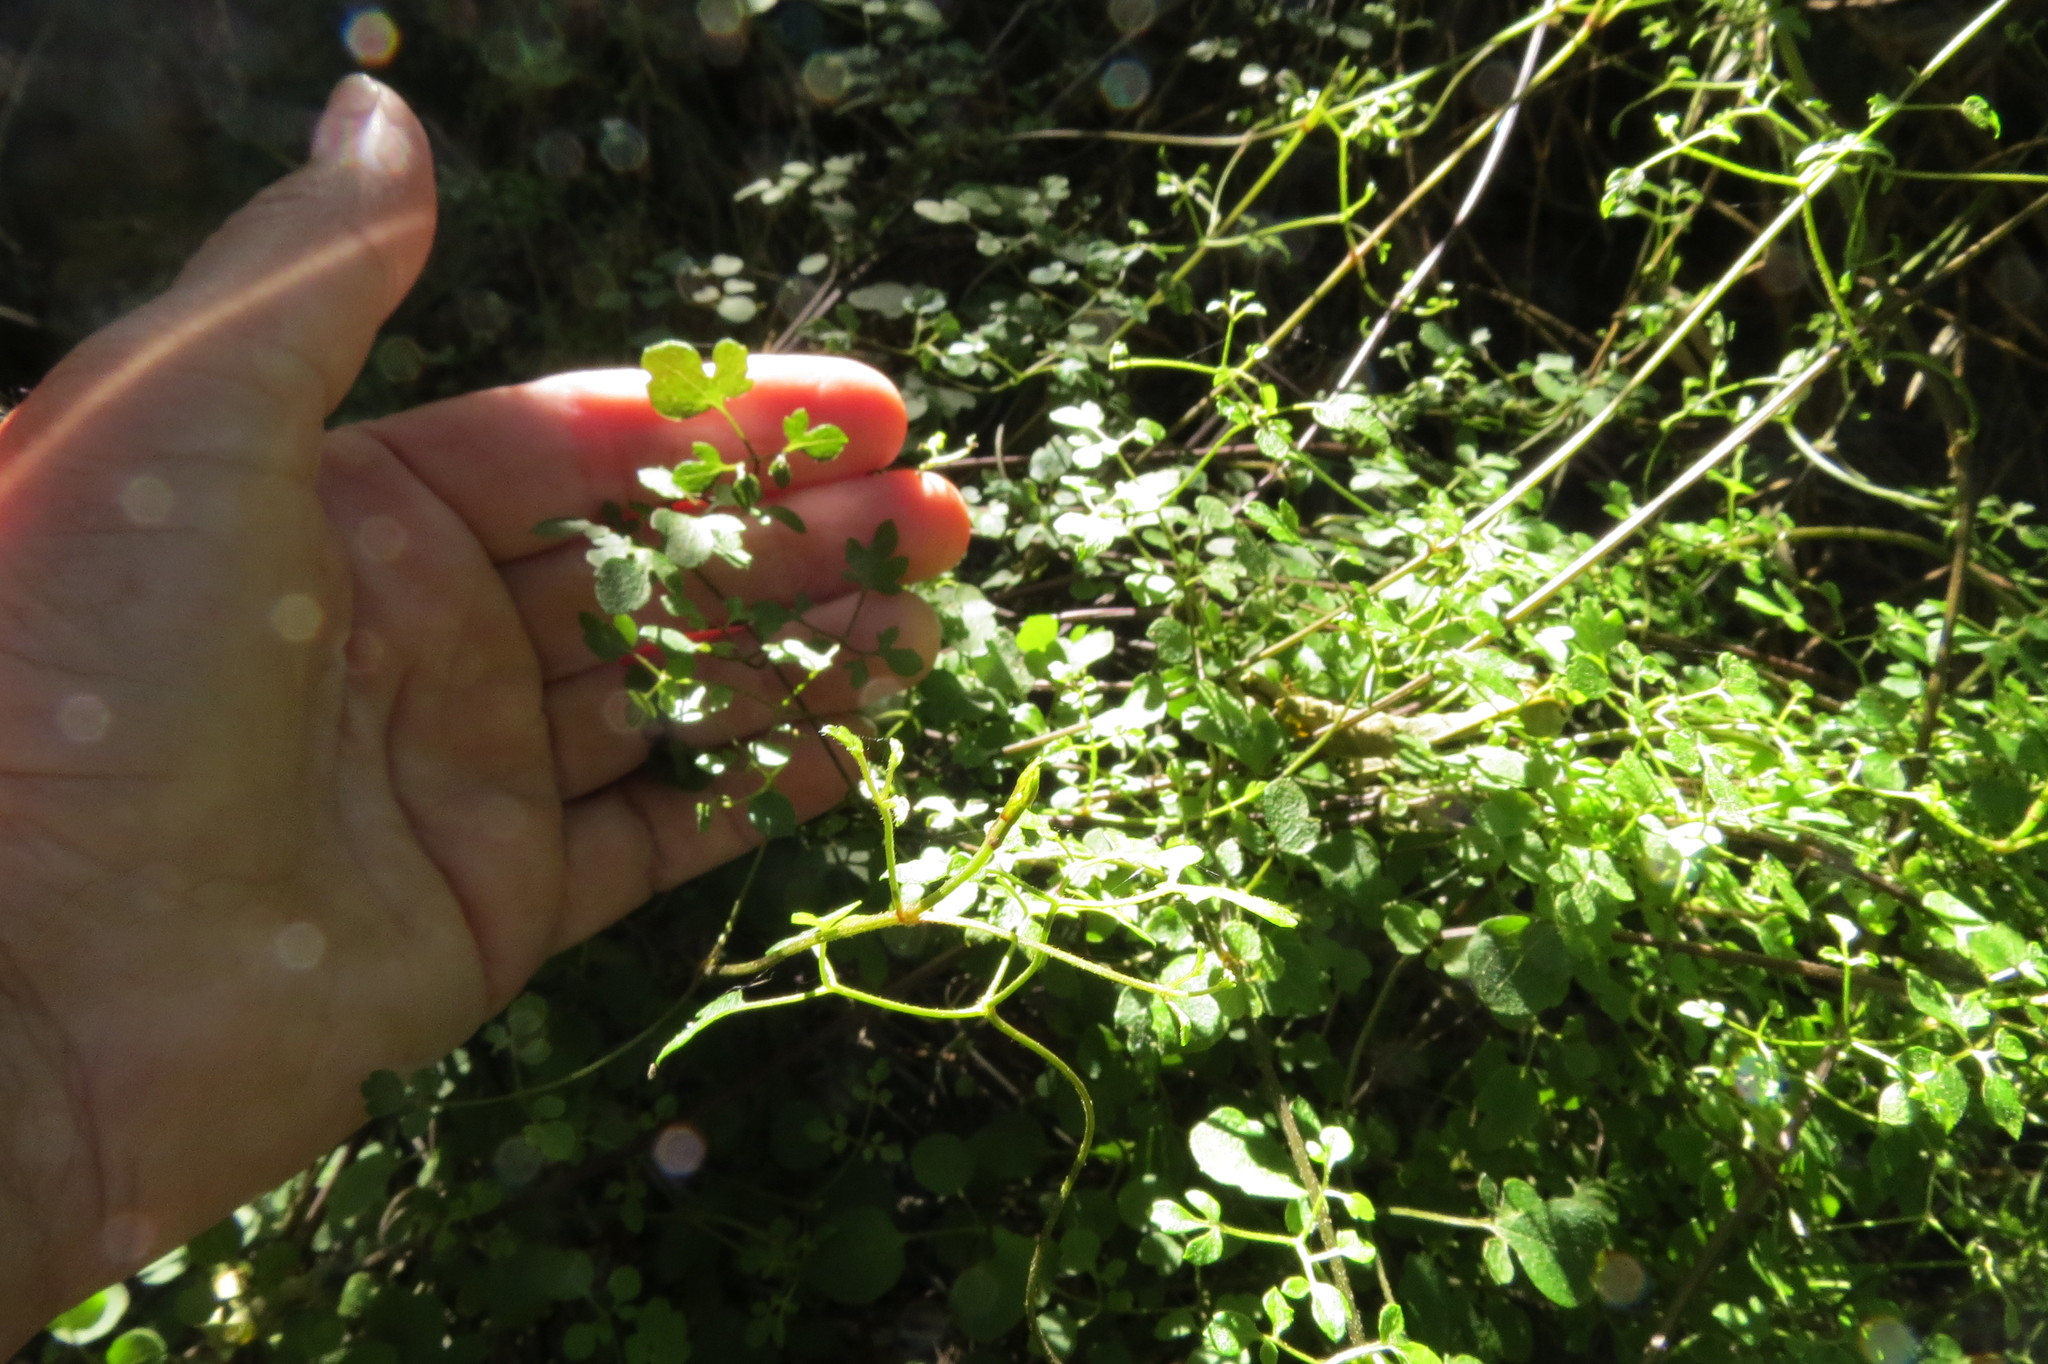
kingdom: Plantae
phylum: Tracheophyta
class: Magnoliopsida
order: Ranunculales
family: Ranunculaceae
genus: Clematis
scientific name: Clematis foetida
